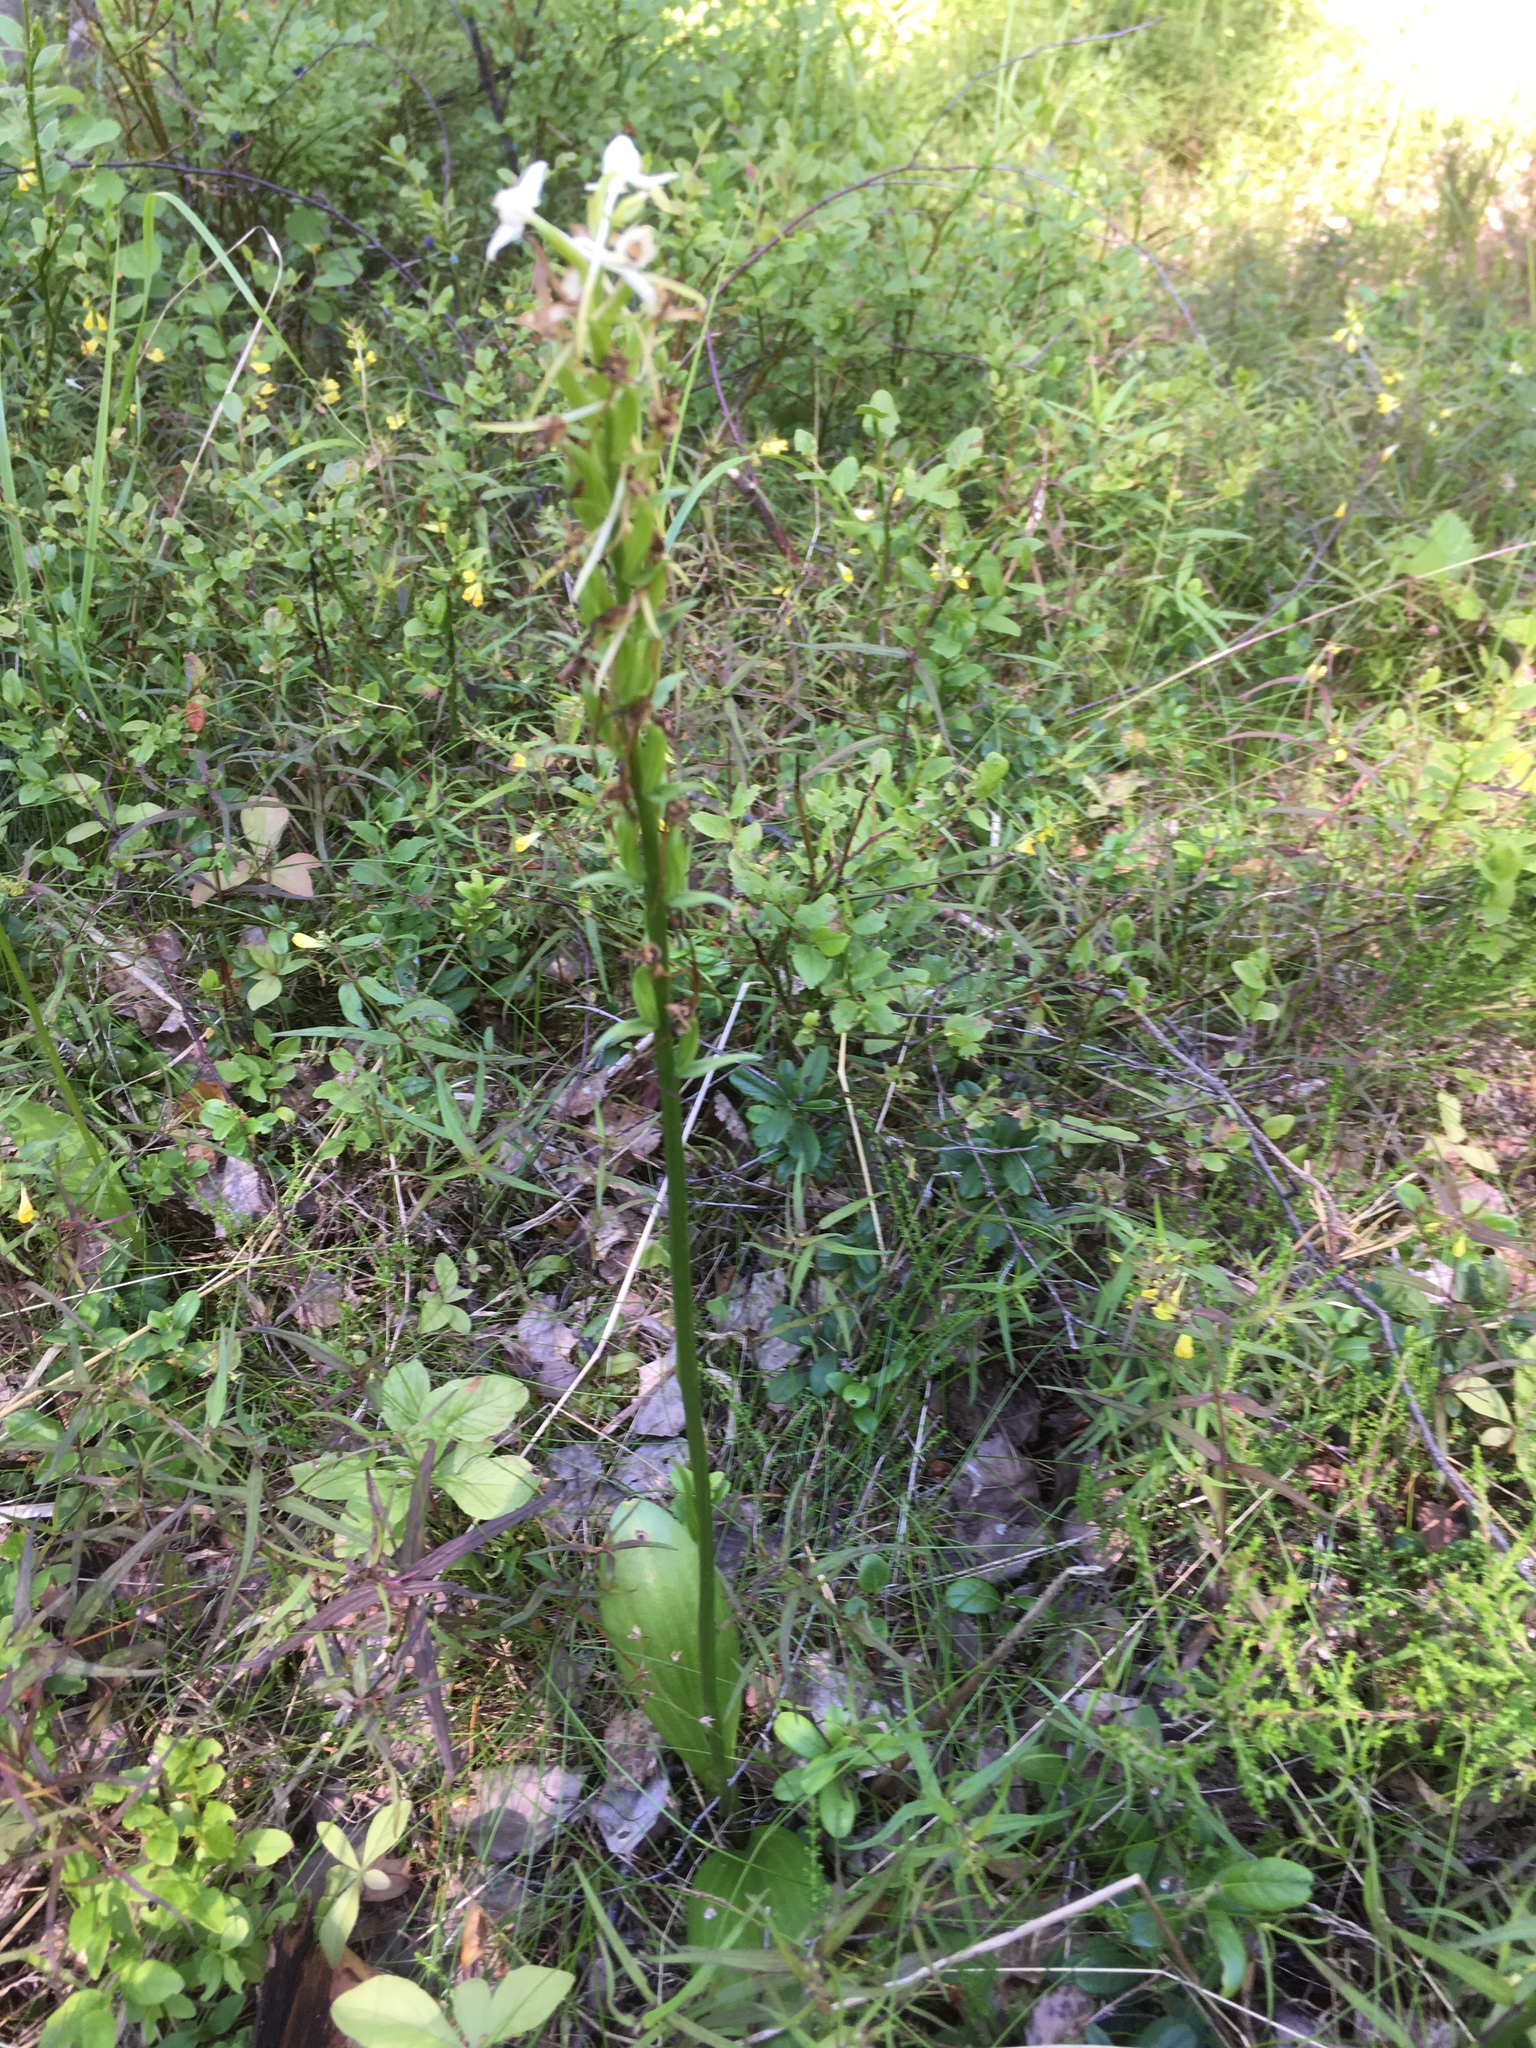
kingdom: Plantae
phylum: Tracheophyta
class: Liliopsida
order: Asparagales
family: Orchidaceae
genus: Platanthera
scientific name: Platanthera bifolia
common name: Lesser butterfly-orchid
